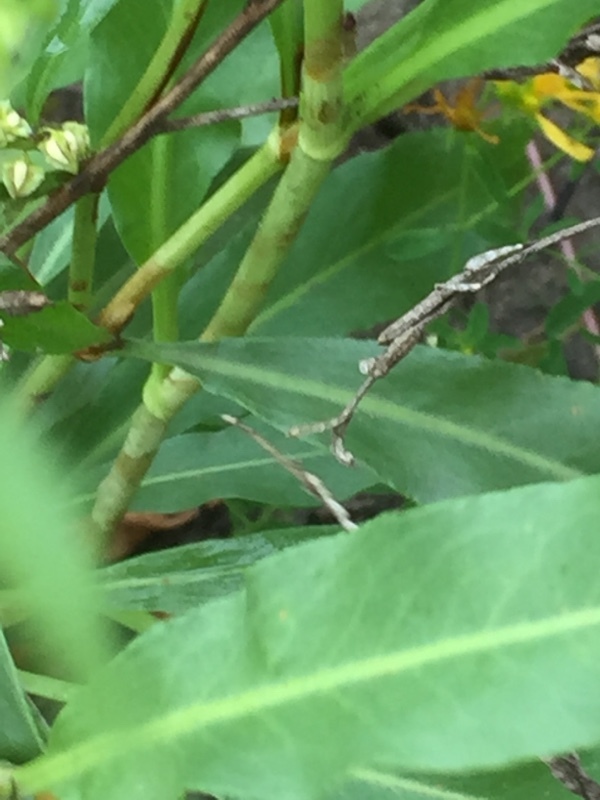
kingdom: Plantae
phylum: Tracheophyta
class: Magnoliopsida
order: Caryophyllales
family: Polygonaceae
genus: Rumex
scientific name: Rumex salicifolius
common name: Willow-leaved dock
